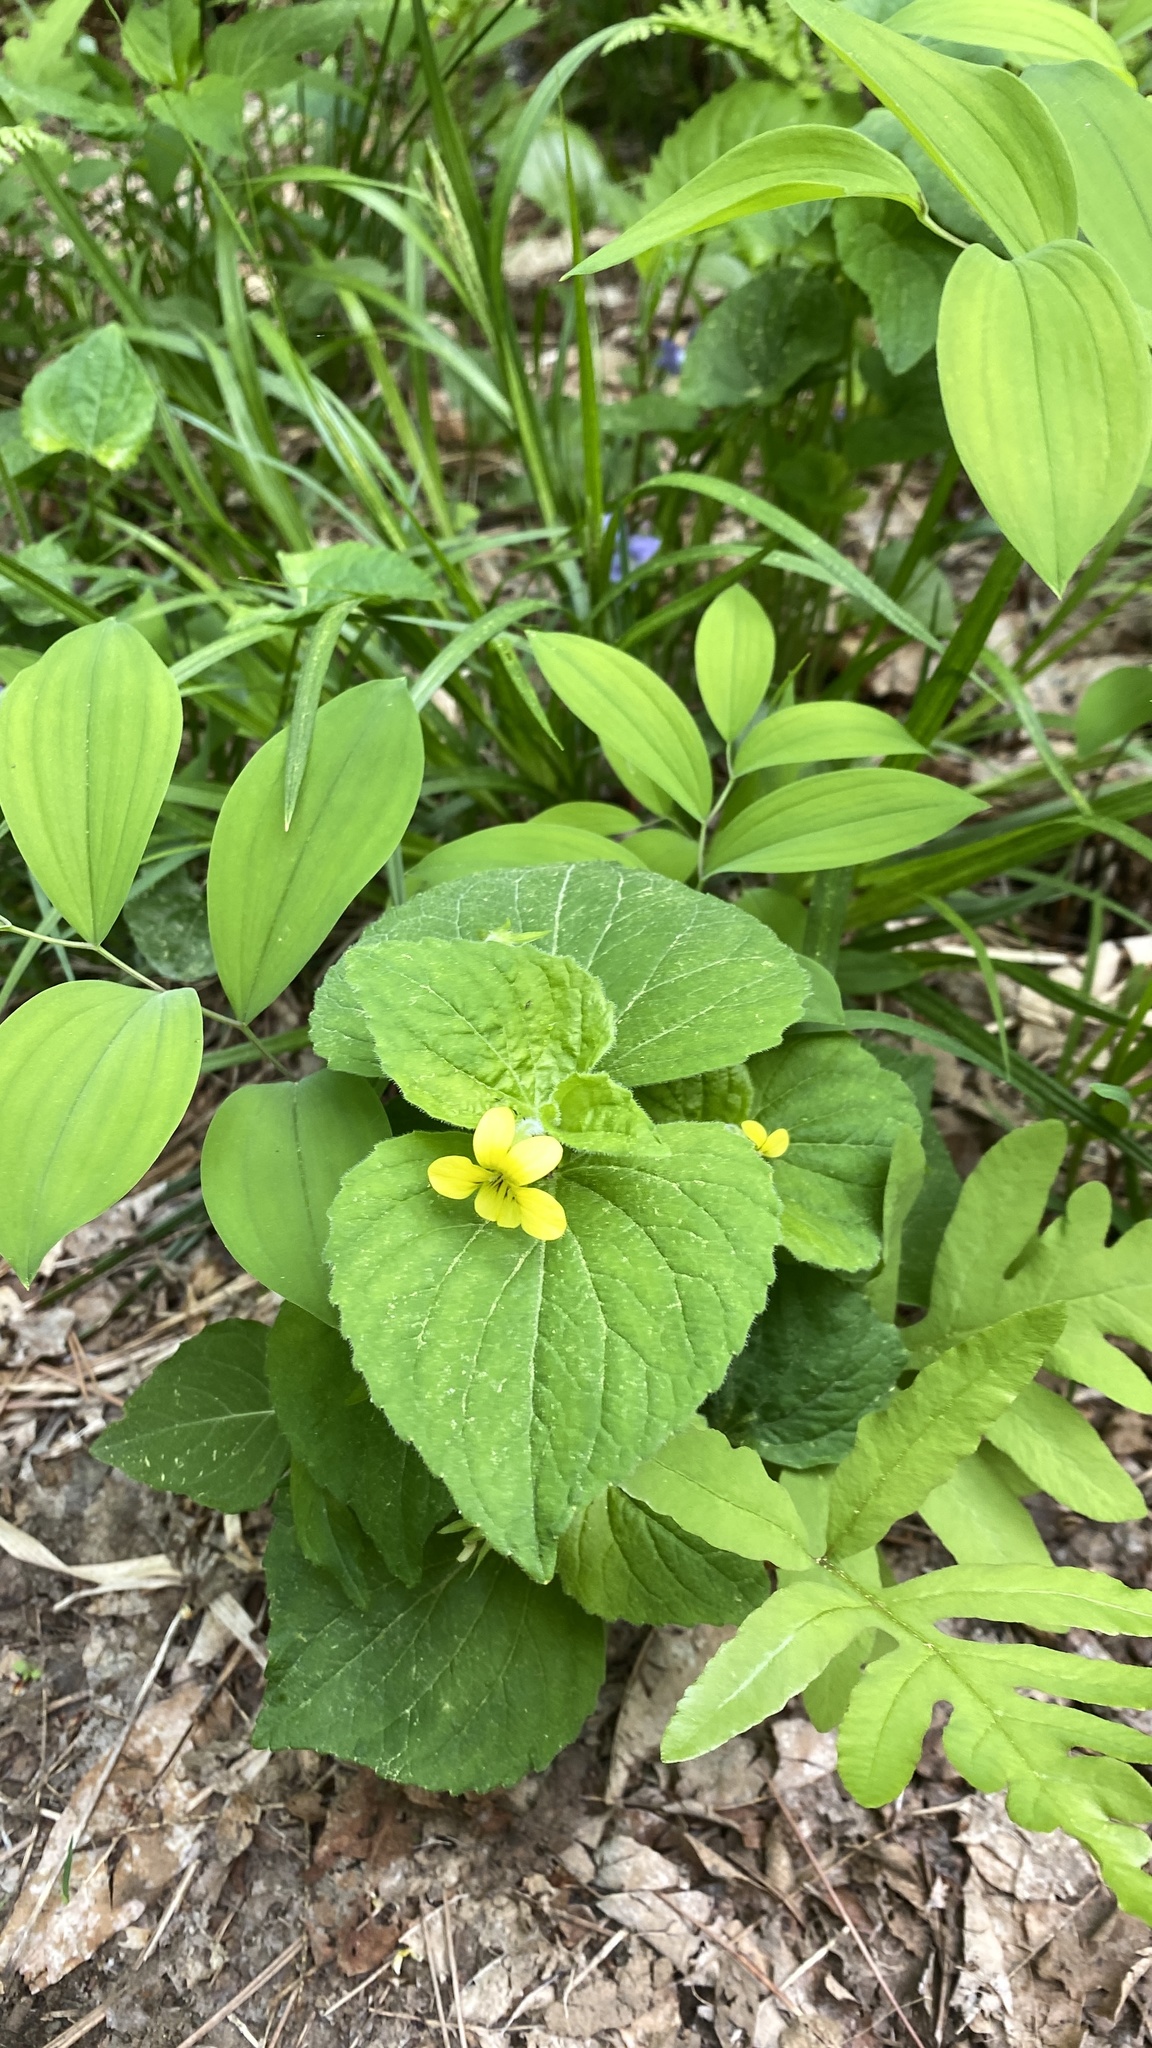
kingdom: Plantae
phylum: Tracheophyta
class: Magnoliopsida
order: Malpighiales
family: Violaceae
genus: Viola
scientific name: Viola pubescens
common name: Yellow forest violet
